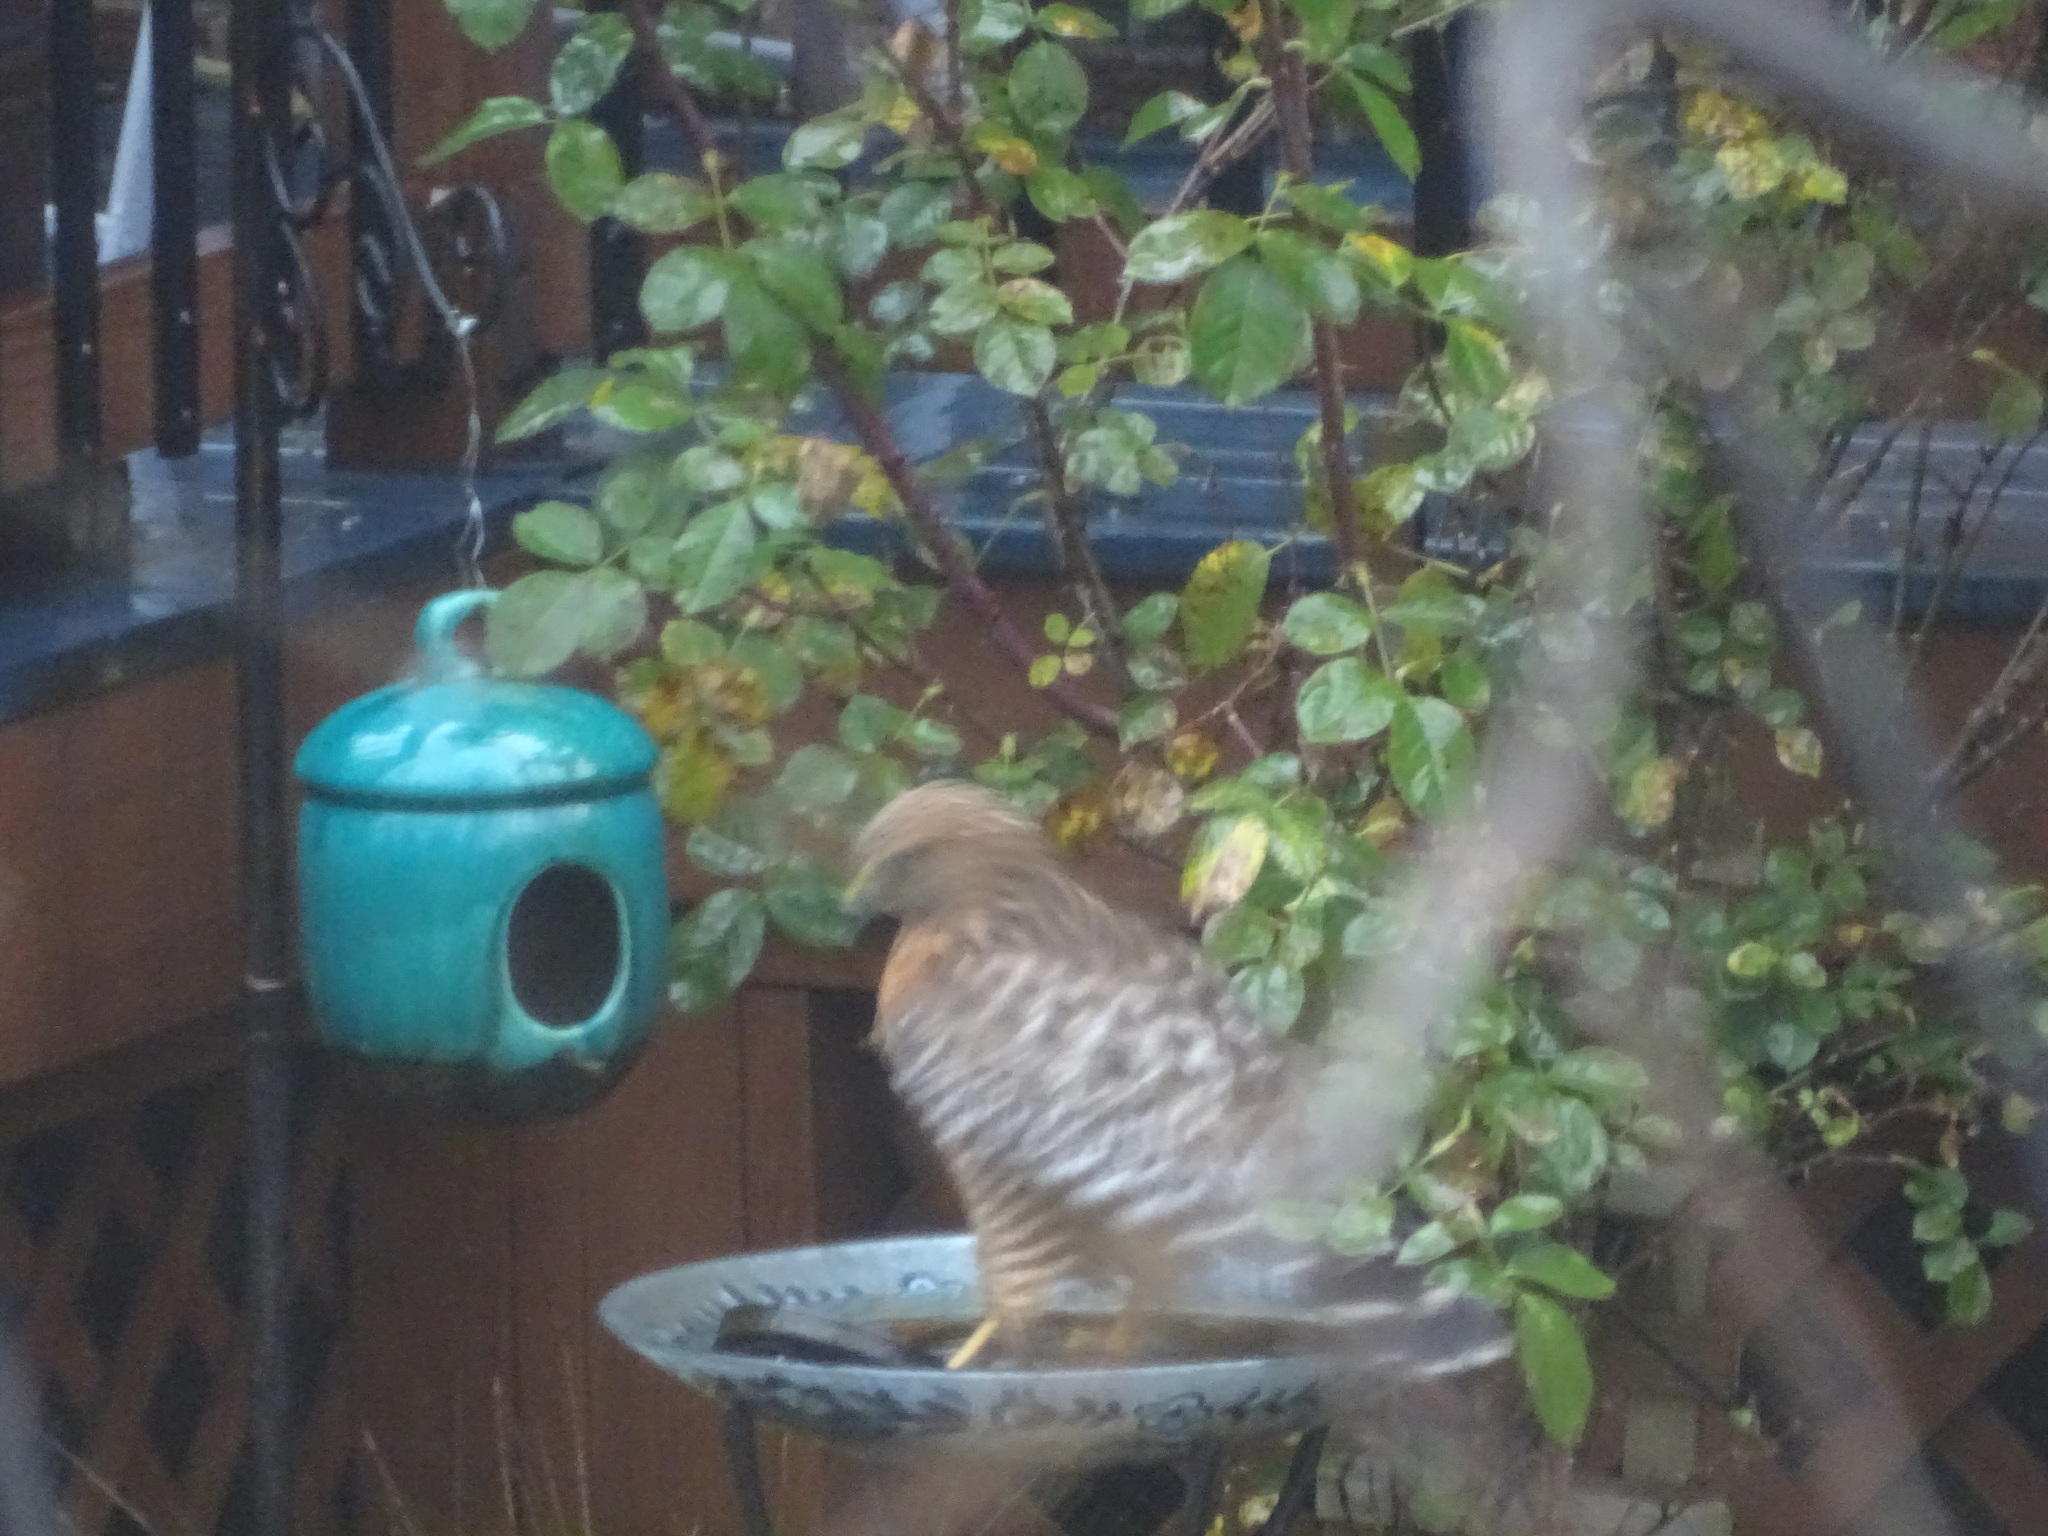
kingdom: Animalia
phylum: Chordata
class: Aves
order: Accipitriformes
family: Accipitridae
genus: Buteo
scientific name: Buteo lineatus
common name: Red-shouldered hawk
